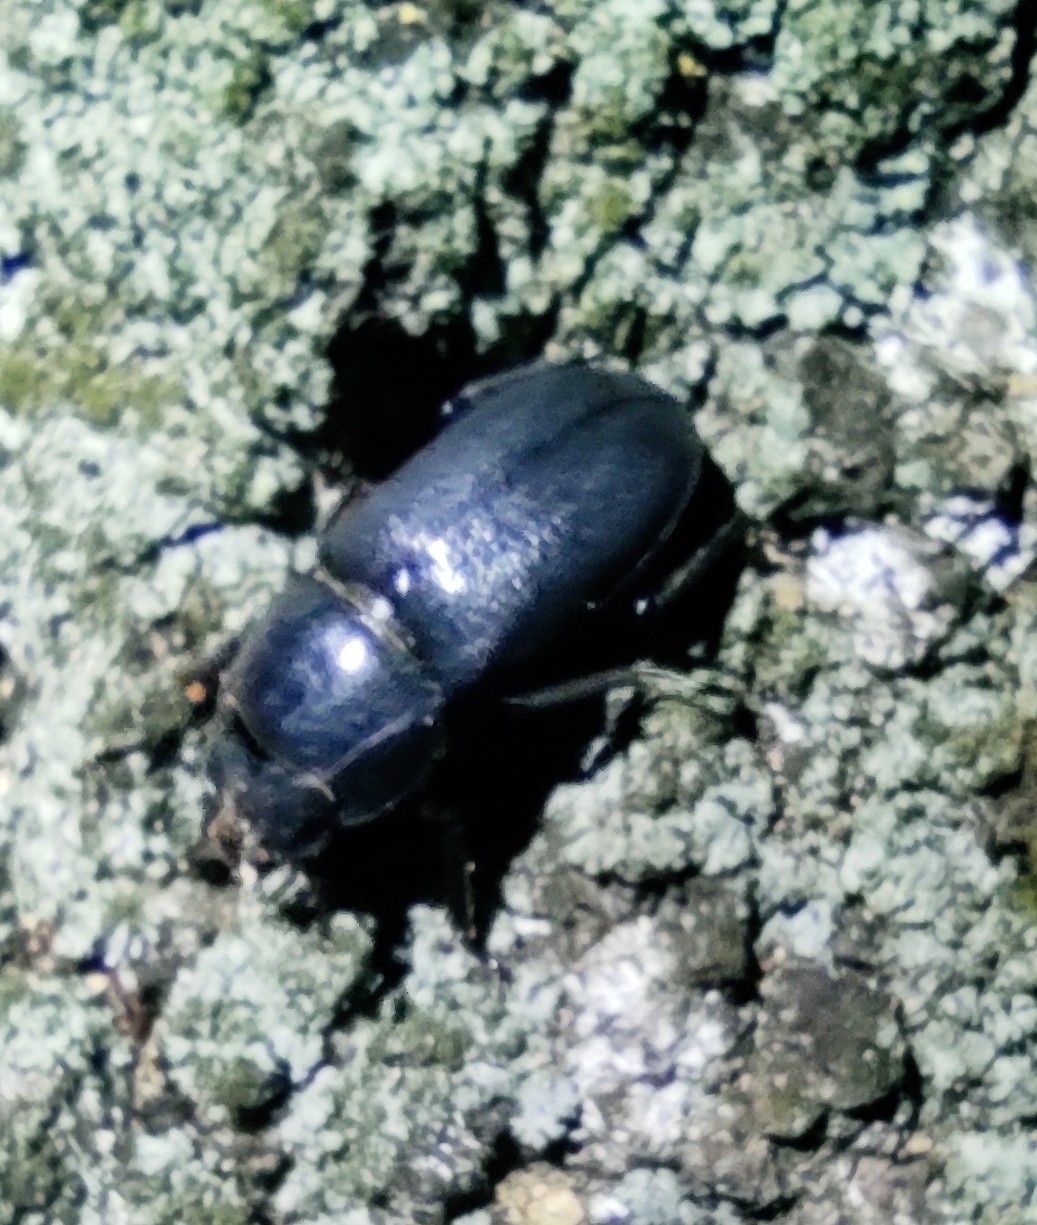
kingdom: Animalia
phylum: Arthropoda
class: Insecta
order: Coleoptera
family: Lucanidae
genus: Dorcus
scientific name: Dorcus parallelipipedus
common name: Lesser stag beetle
